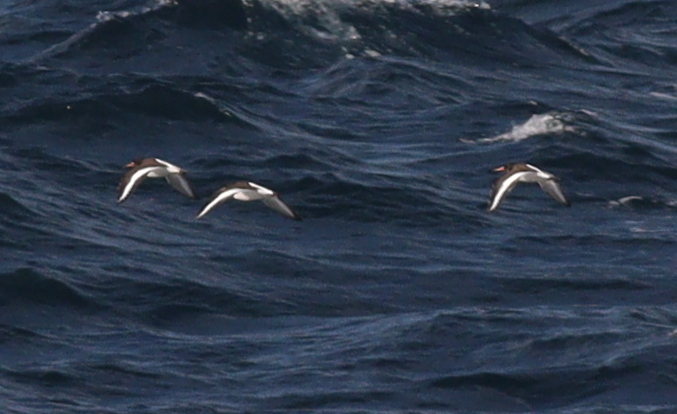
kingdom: Animalia
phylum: Chordata
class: Aves
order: Charadriiformes
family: Haematopodidae
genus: Haematopus
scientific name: Haematopus ostralegus
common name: Eurasian oystercatcher
